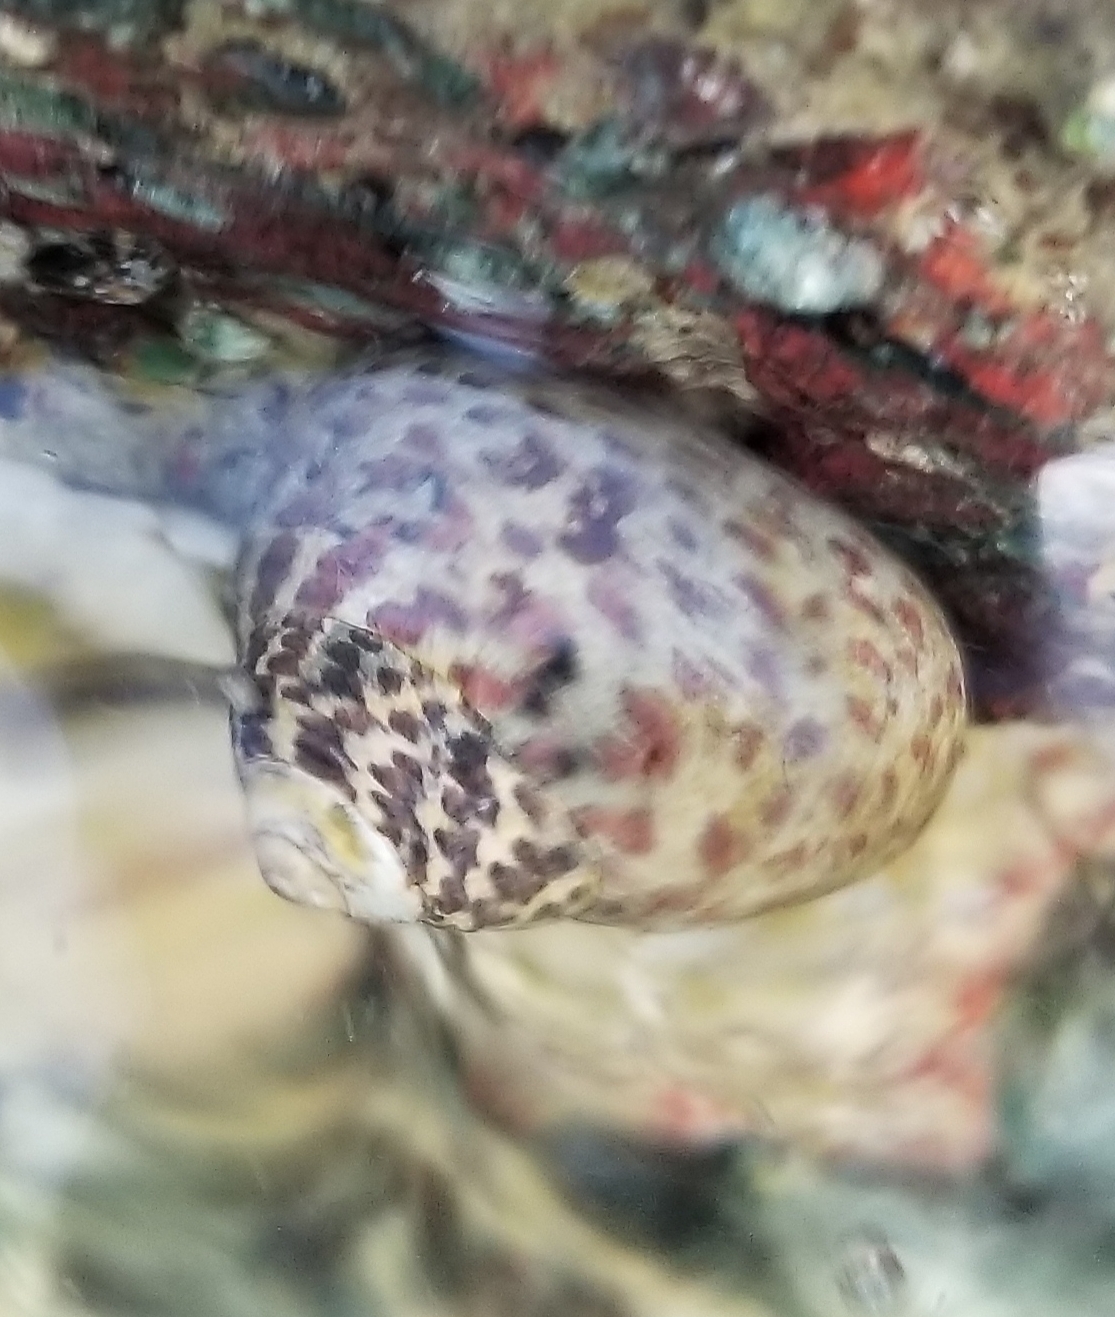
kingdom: Animalia
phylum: Mollusca
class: Gastropoda
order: Trochida
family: Trochidae
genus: Phorcus
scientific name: Phorcus turbinatus
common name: Turbinate monodont
